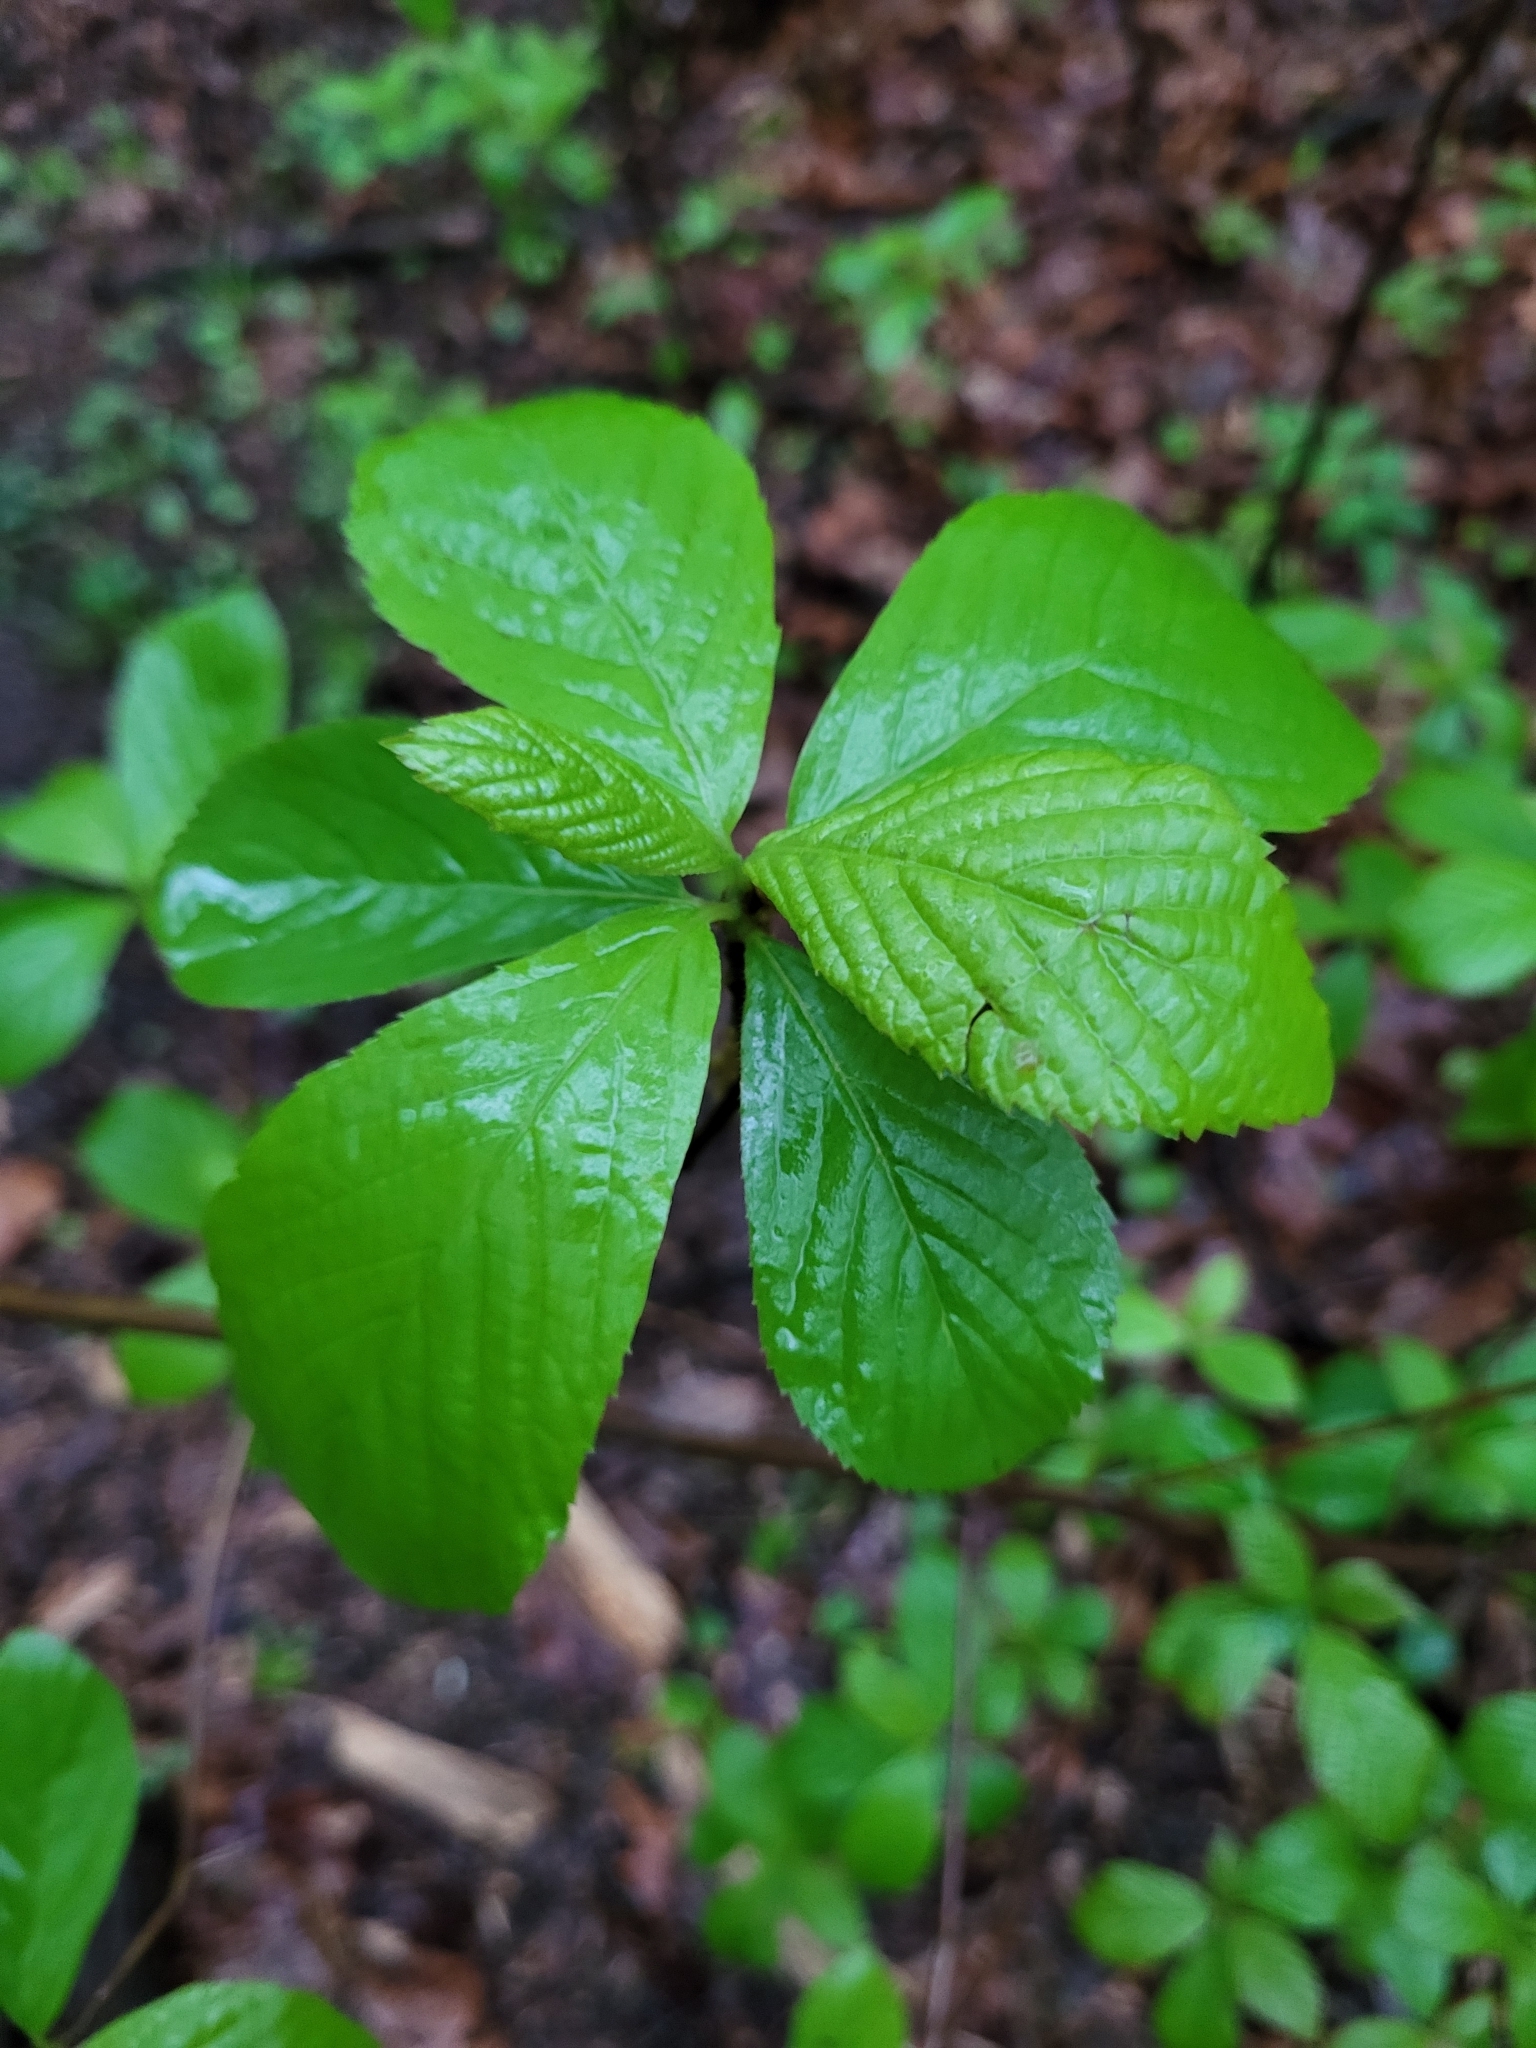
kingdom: Plantae
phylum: Tracheophyta
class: Magnoliopsida
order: Ericales
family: Clethraceae
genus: Clethra
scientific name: Clethra alnifolia
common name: Sweet pepperbush
